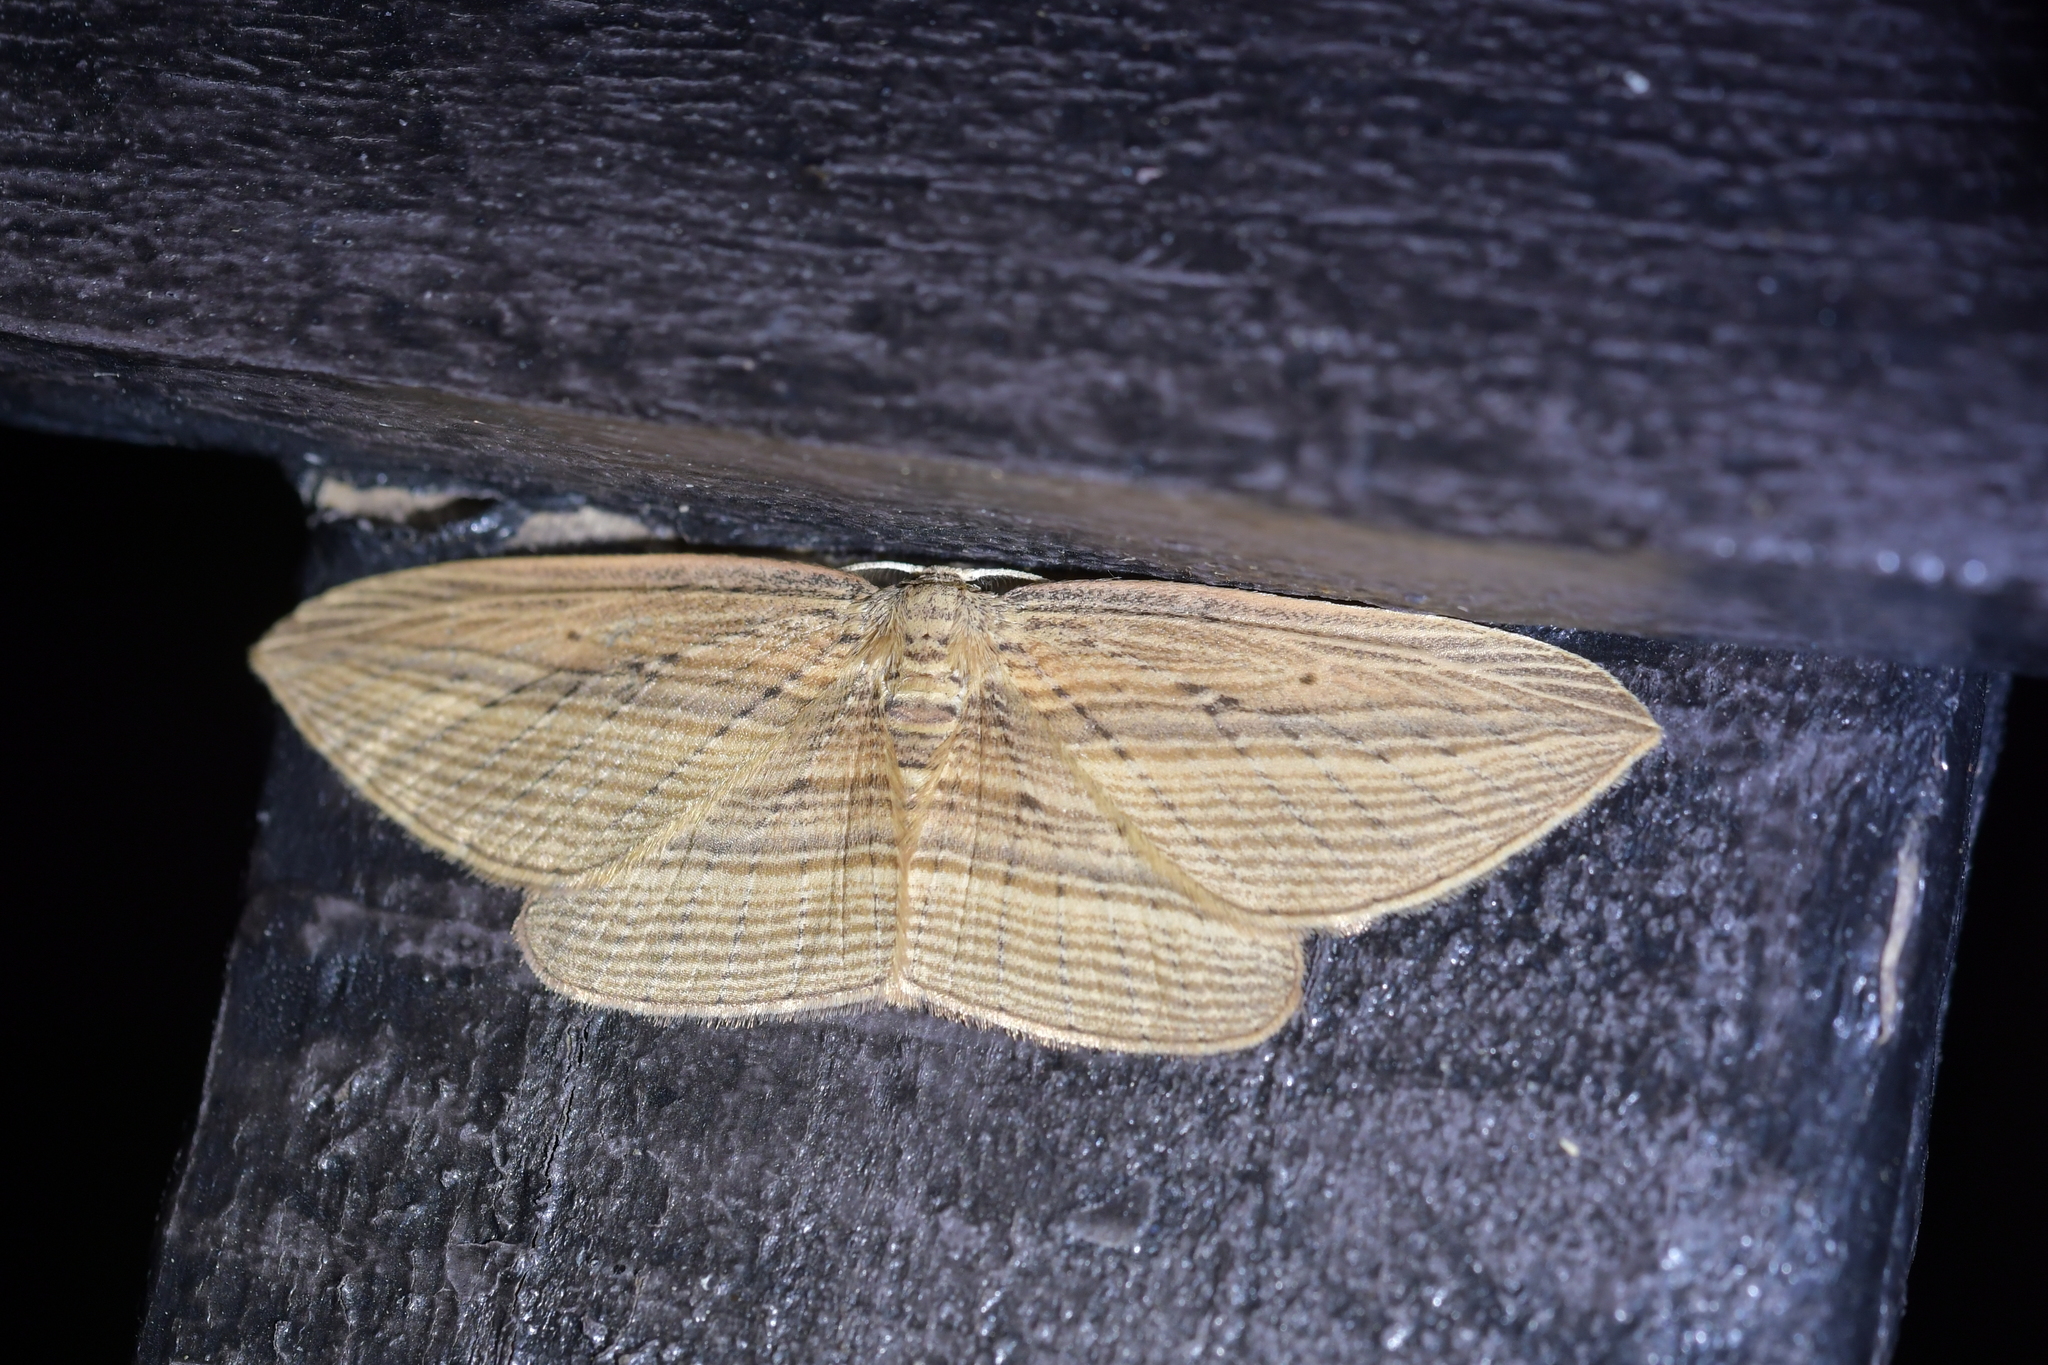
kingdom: Animalia
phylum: Arthropoda
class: Insecta
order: Lepidoptera
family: Geometridae
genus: Epiphryne
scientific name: Epiphryne verriculata
